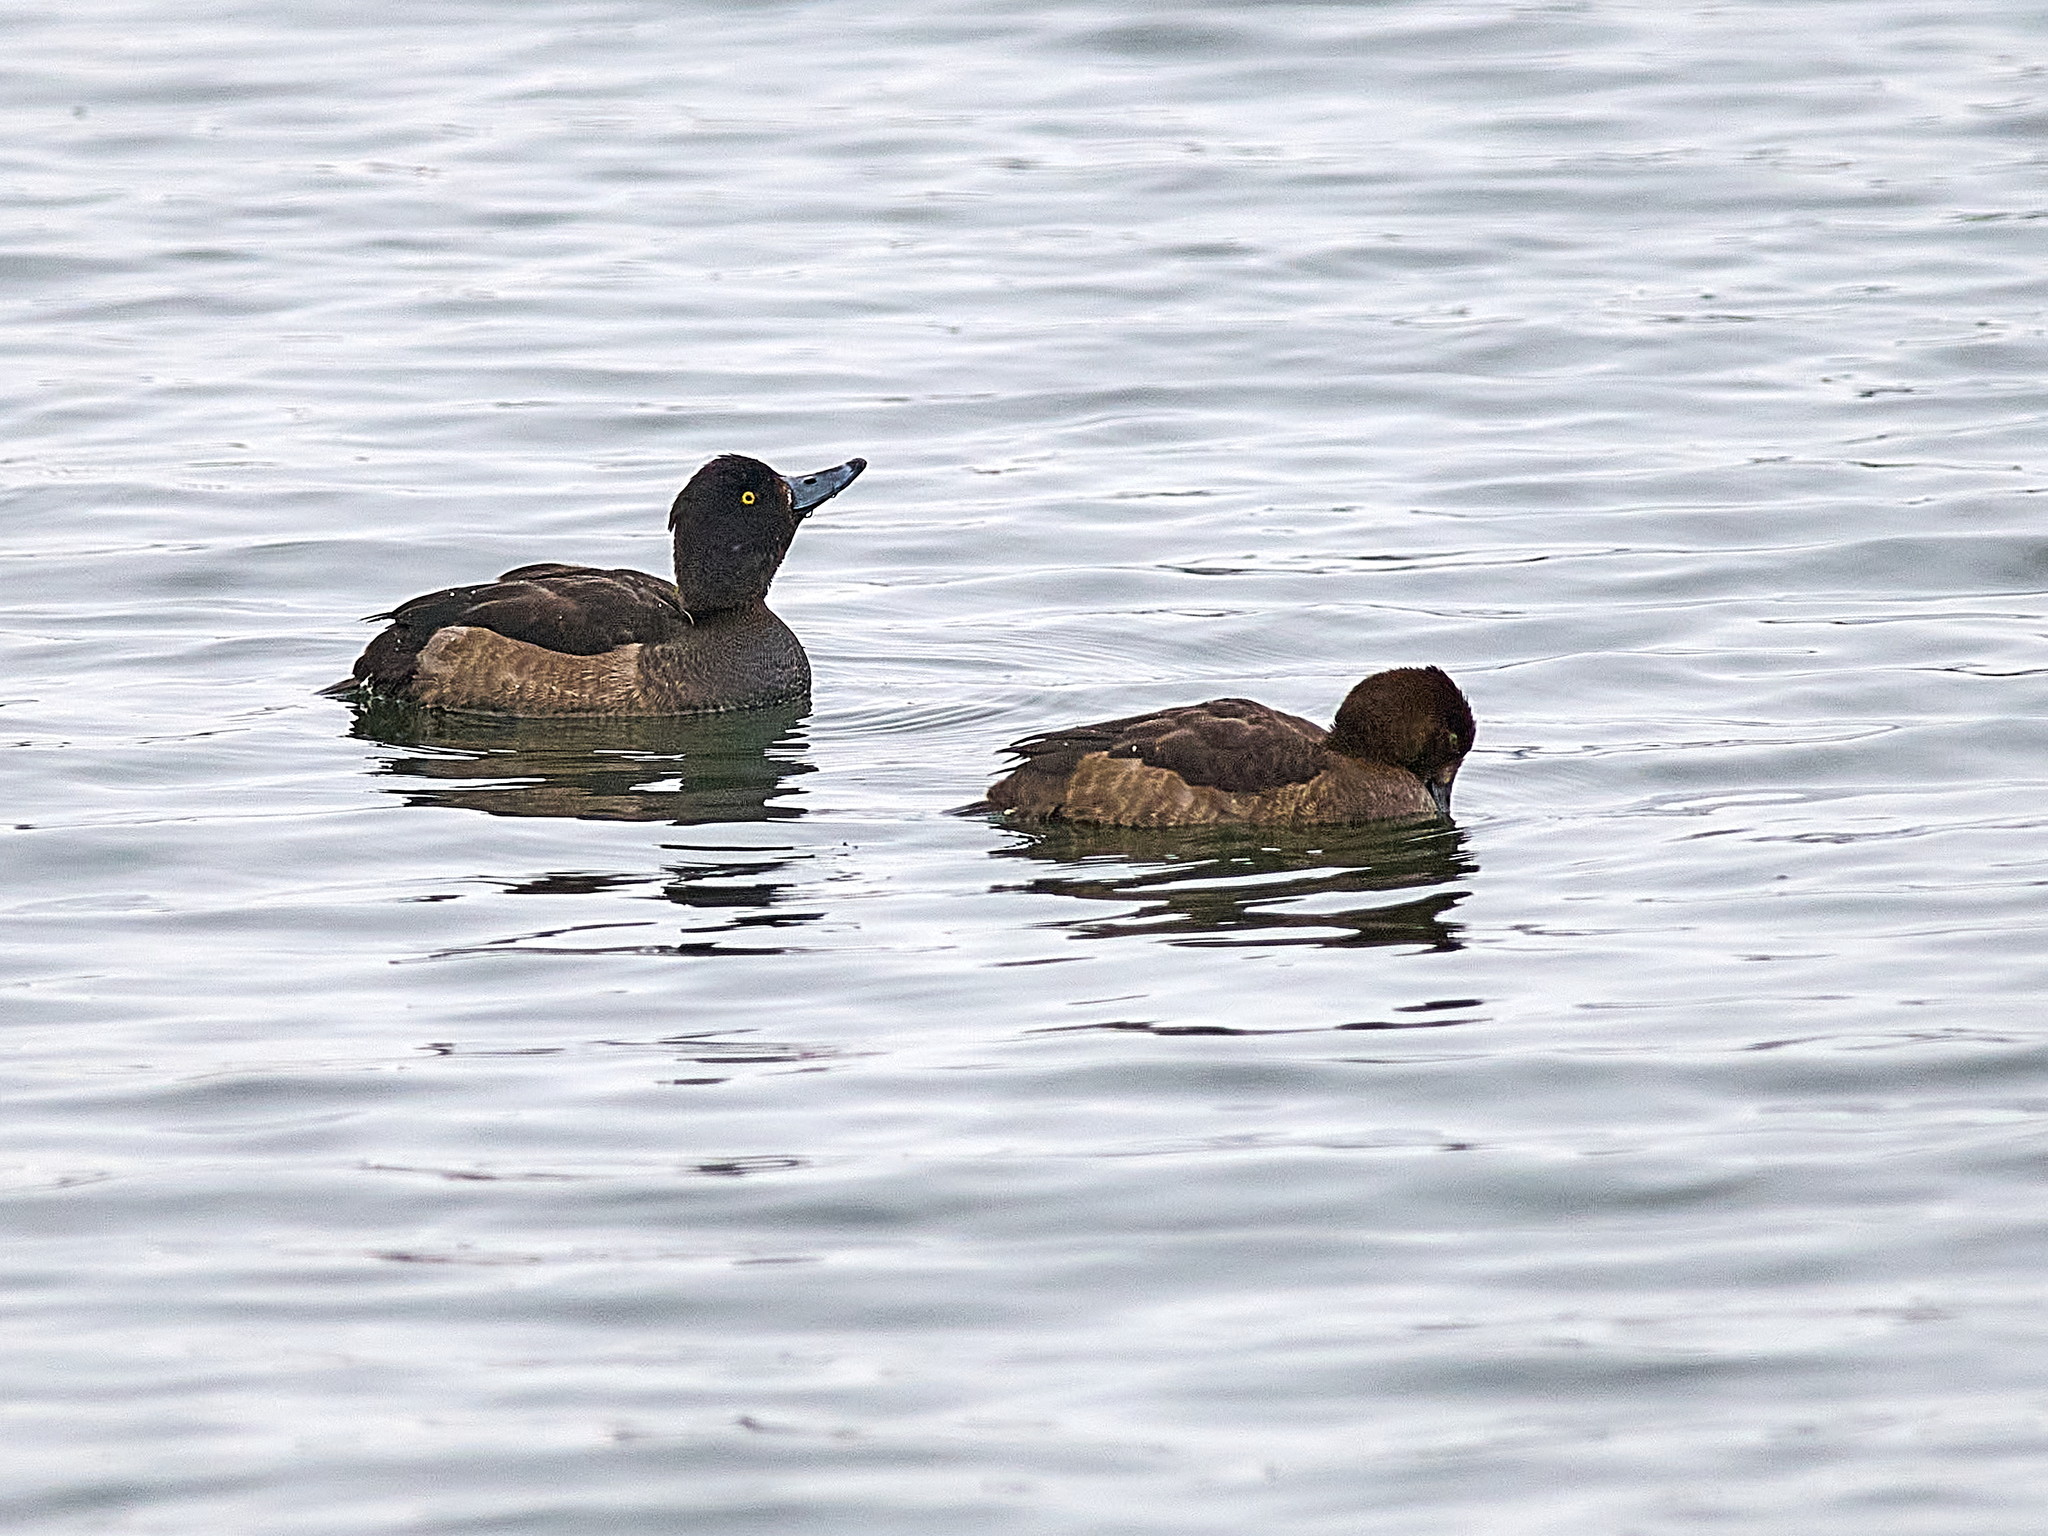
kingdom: Animalia
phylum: Chordata
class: Aves
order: Anseriformes
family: Anatidae
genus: Aythya
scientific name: Aythya fuligula
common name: Tufted duck
